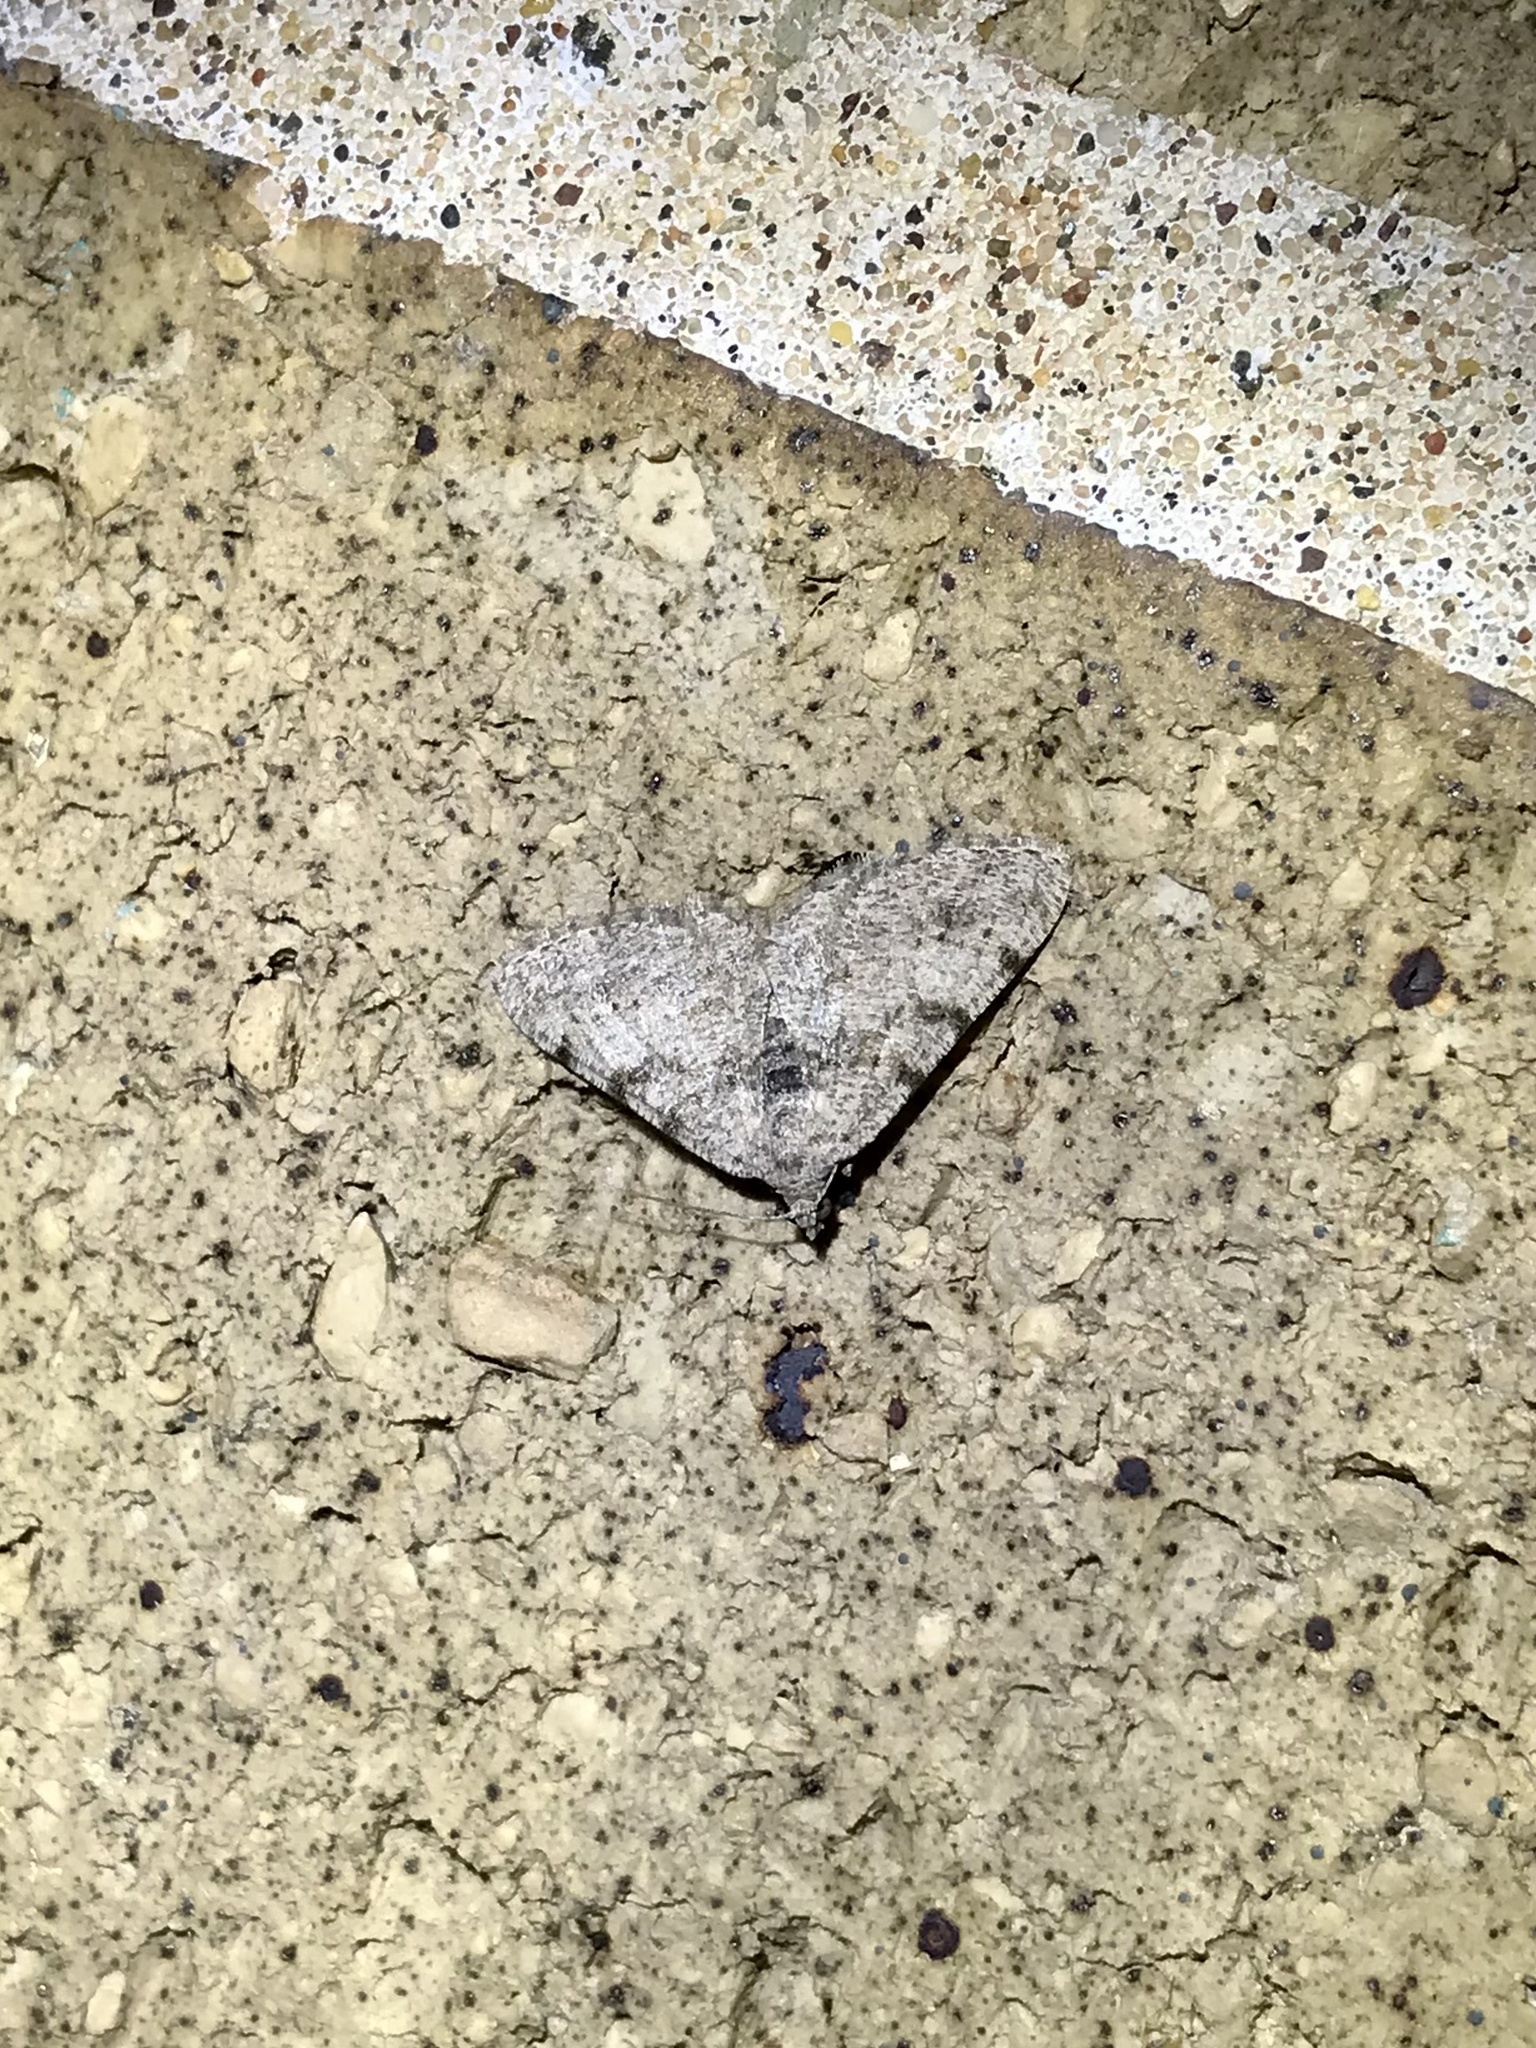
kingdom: Animalia
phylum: Arthropoda
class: Insecta
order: Lepidoptera
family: Geometridae
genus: Digrammia
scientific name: Digrammia gnophosaria
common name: Hollow-spotted angle
